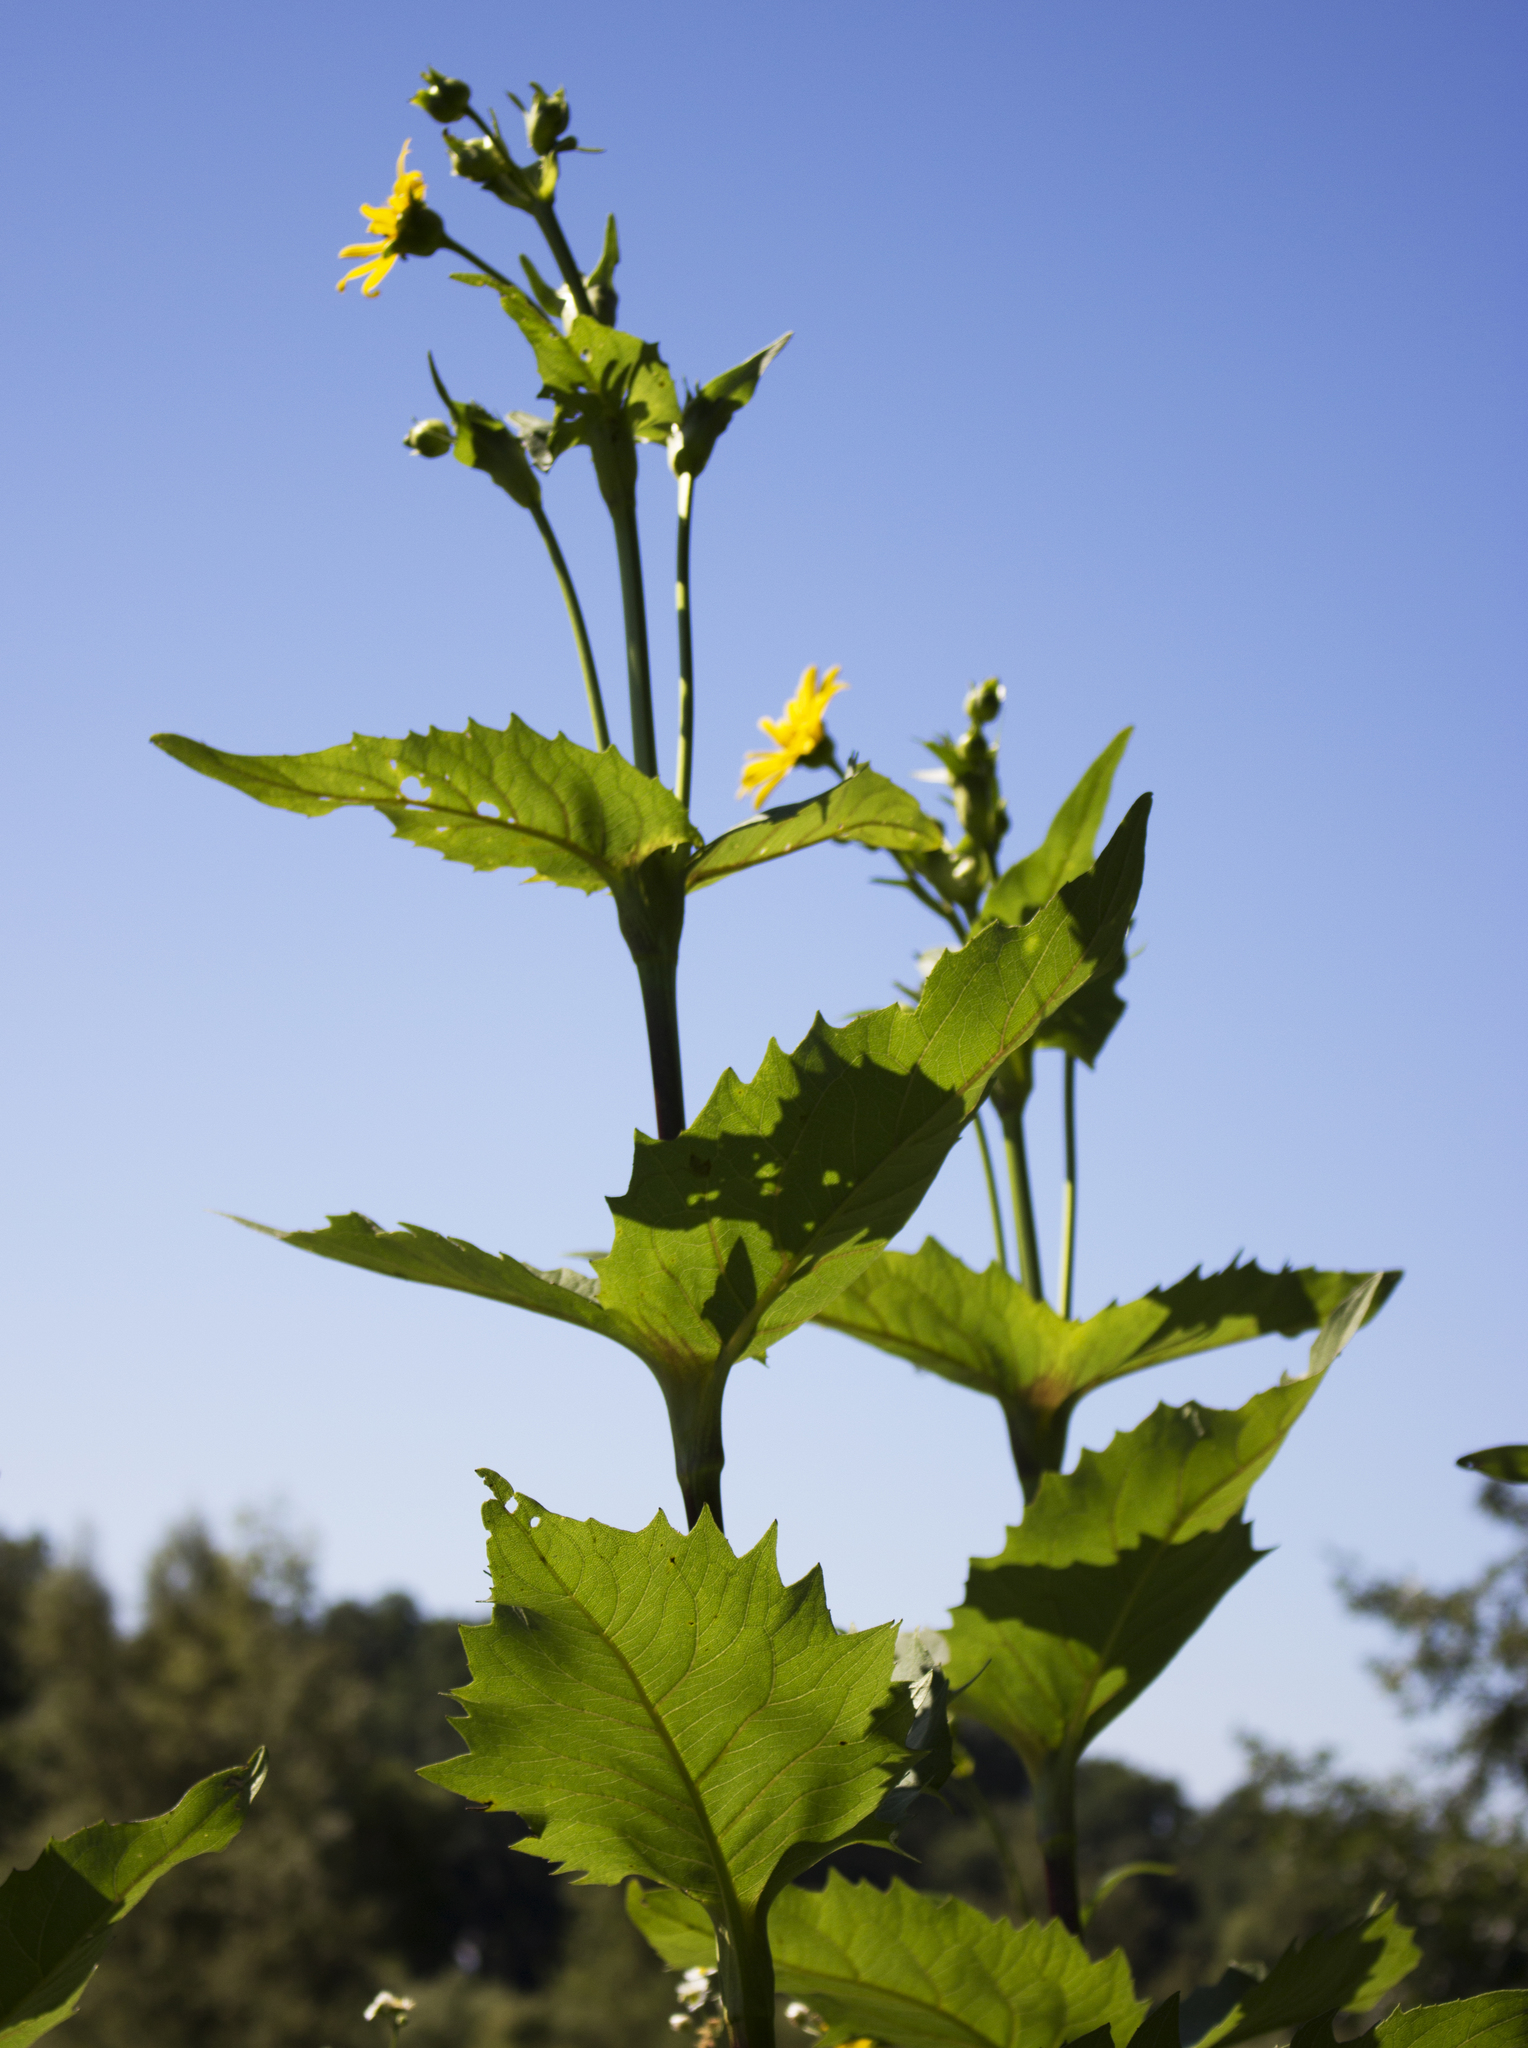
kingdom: Plantae
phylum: Tracheophyta
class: Magnoliopsida
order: Asterales
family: Asteraceae
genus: Silphium
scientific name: Silphium perfoliatum
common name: Cup-plant
